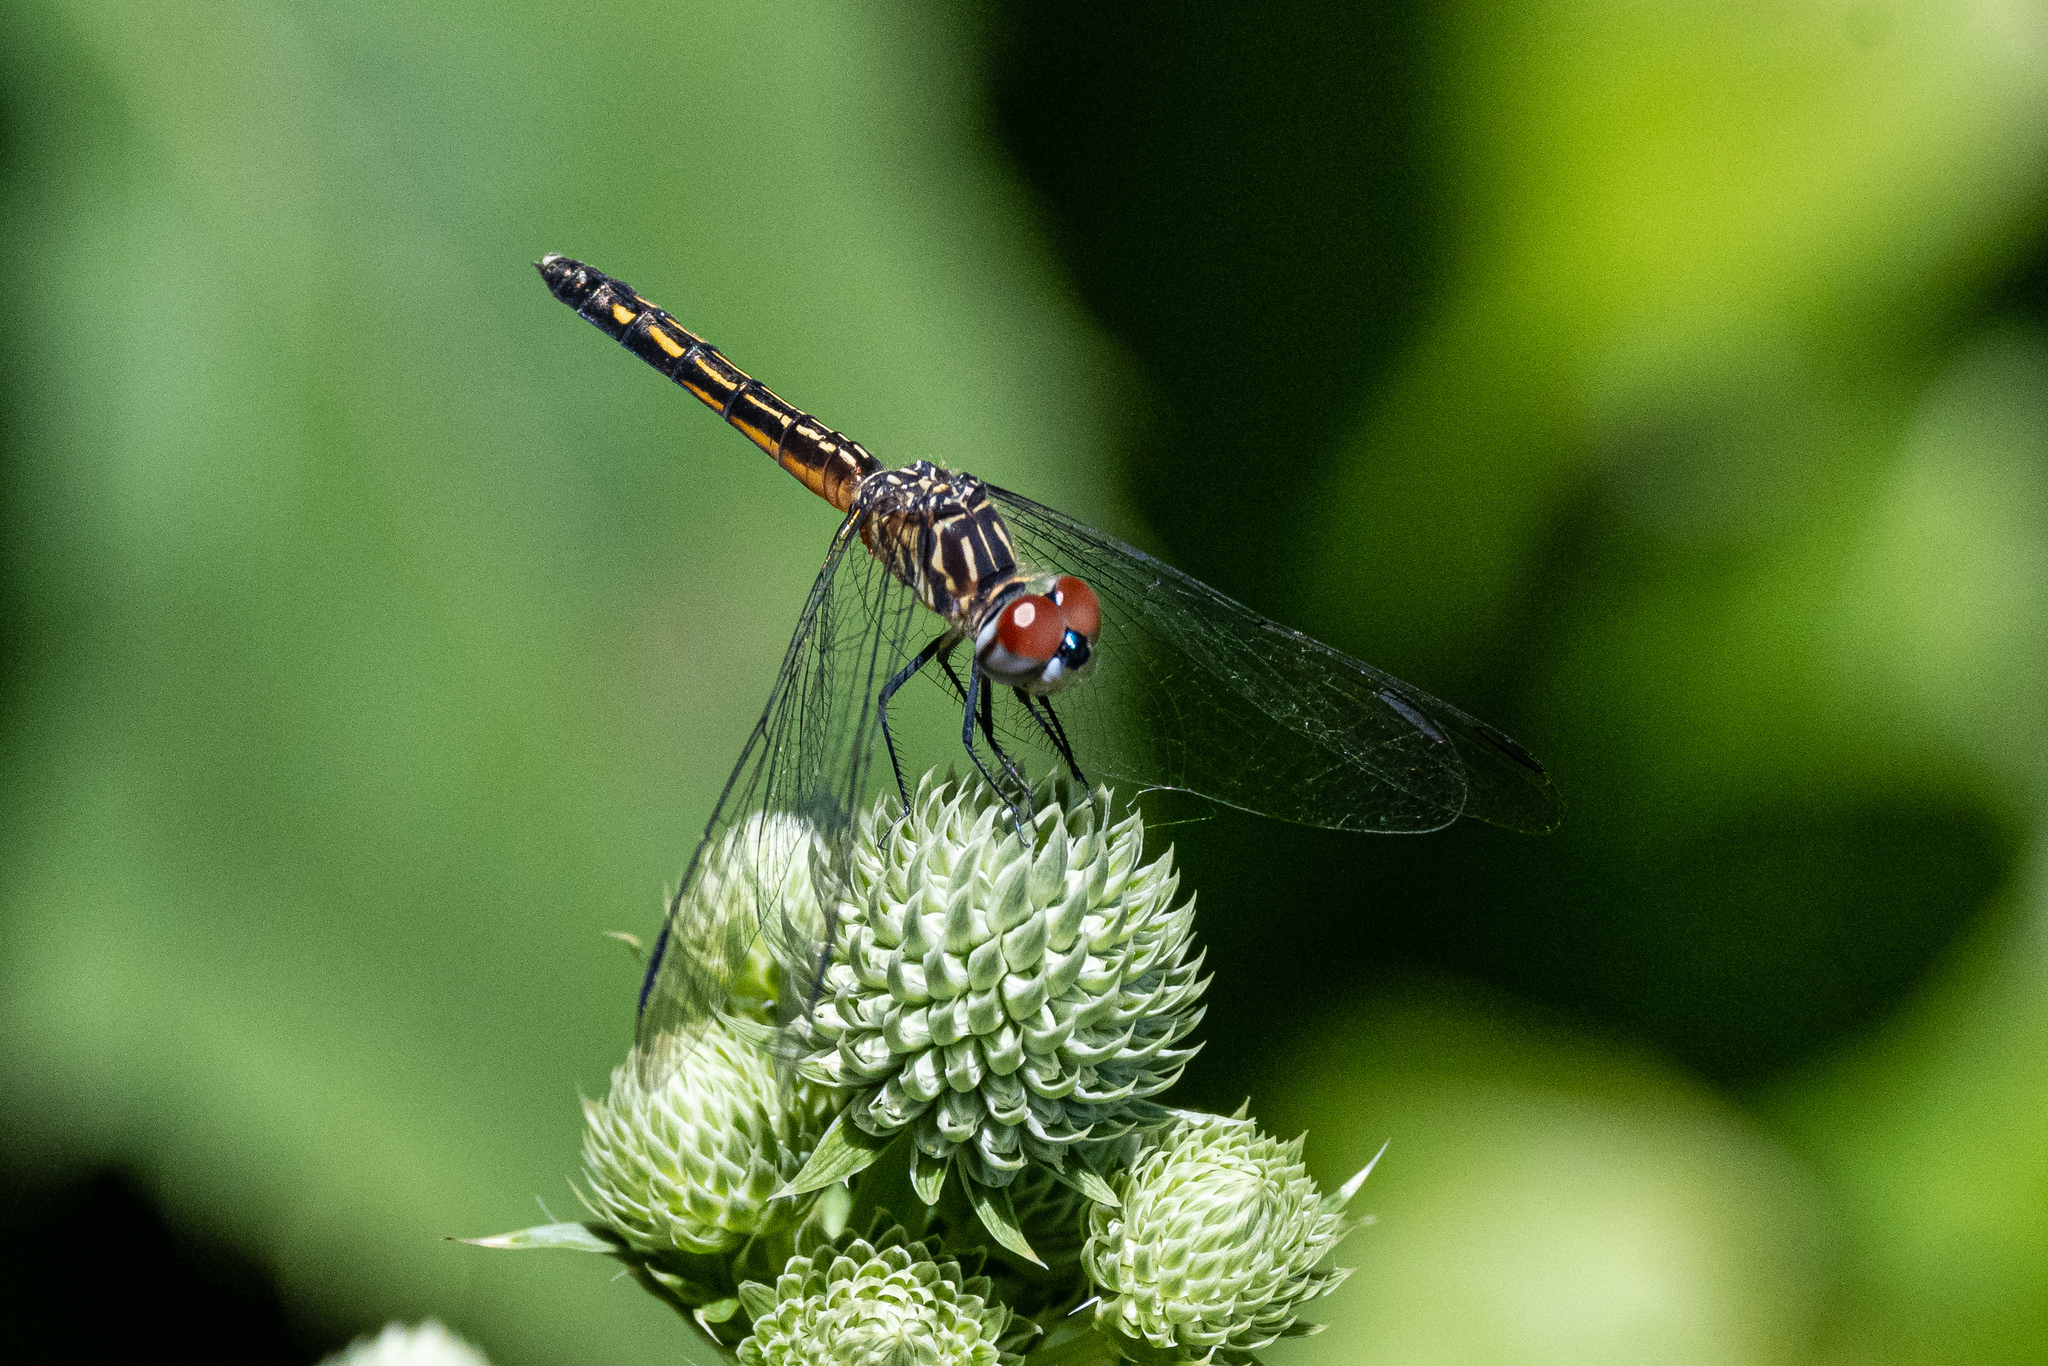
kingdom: Animalia
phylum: Arthropoda
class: Insecta
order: Odonata
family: Libellulidae
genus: Pachydiplax
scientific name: Pachydiplax longipennis
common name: Blue dasher
